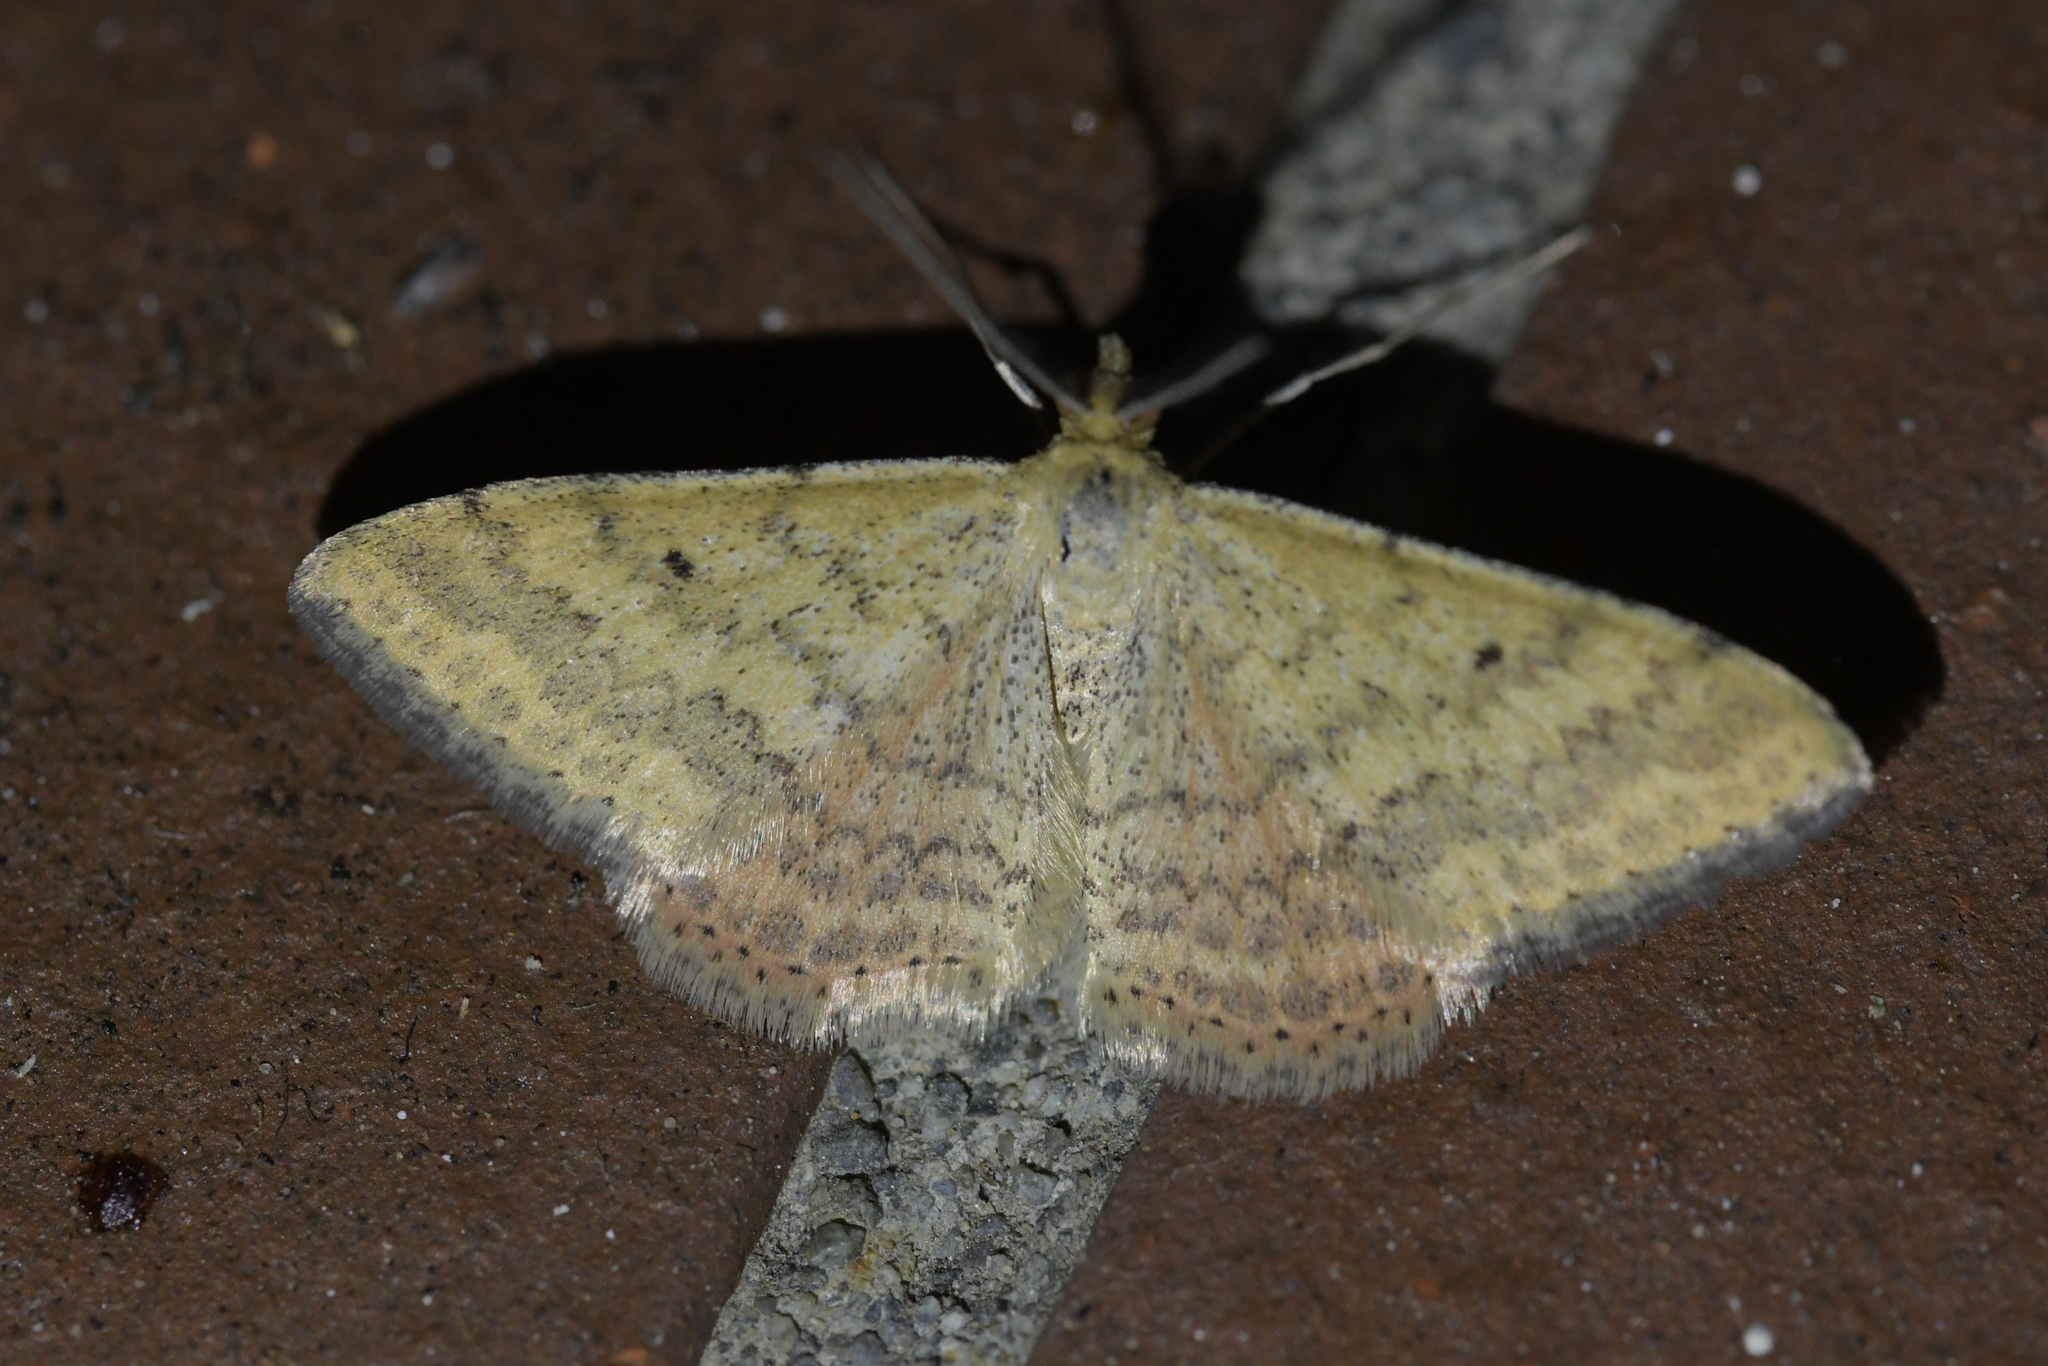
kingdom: Animalia
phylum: Arthropoda
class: Insecta
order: Lepidoptera
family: Geometridae
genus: Scopula
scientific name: Scopula rubraria
